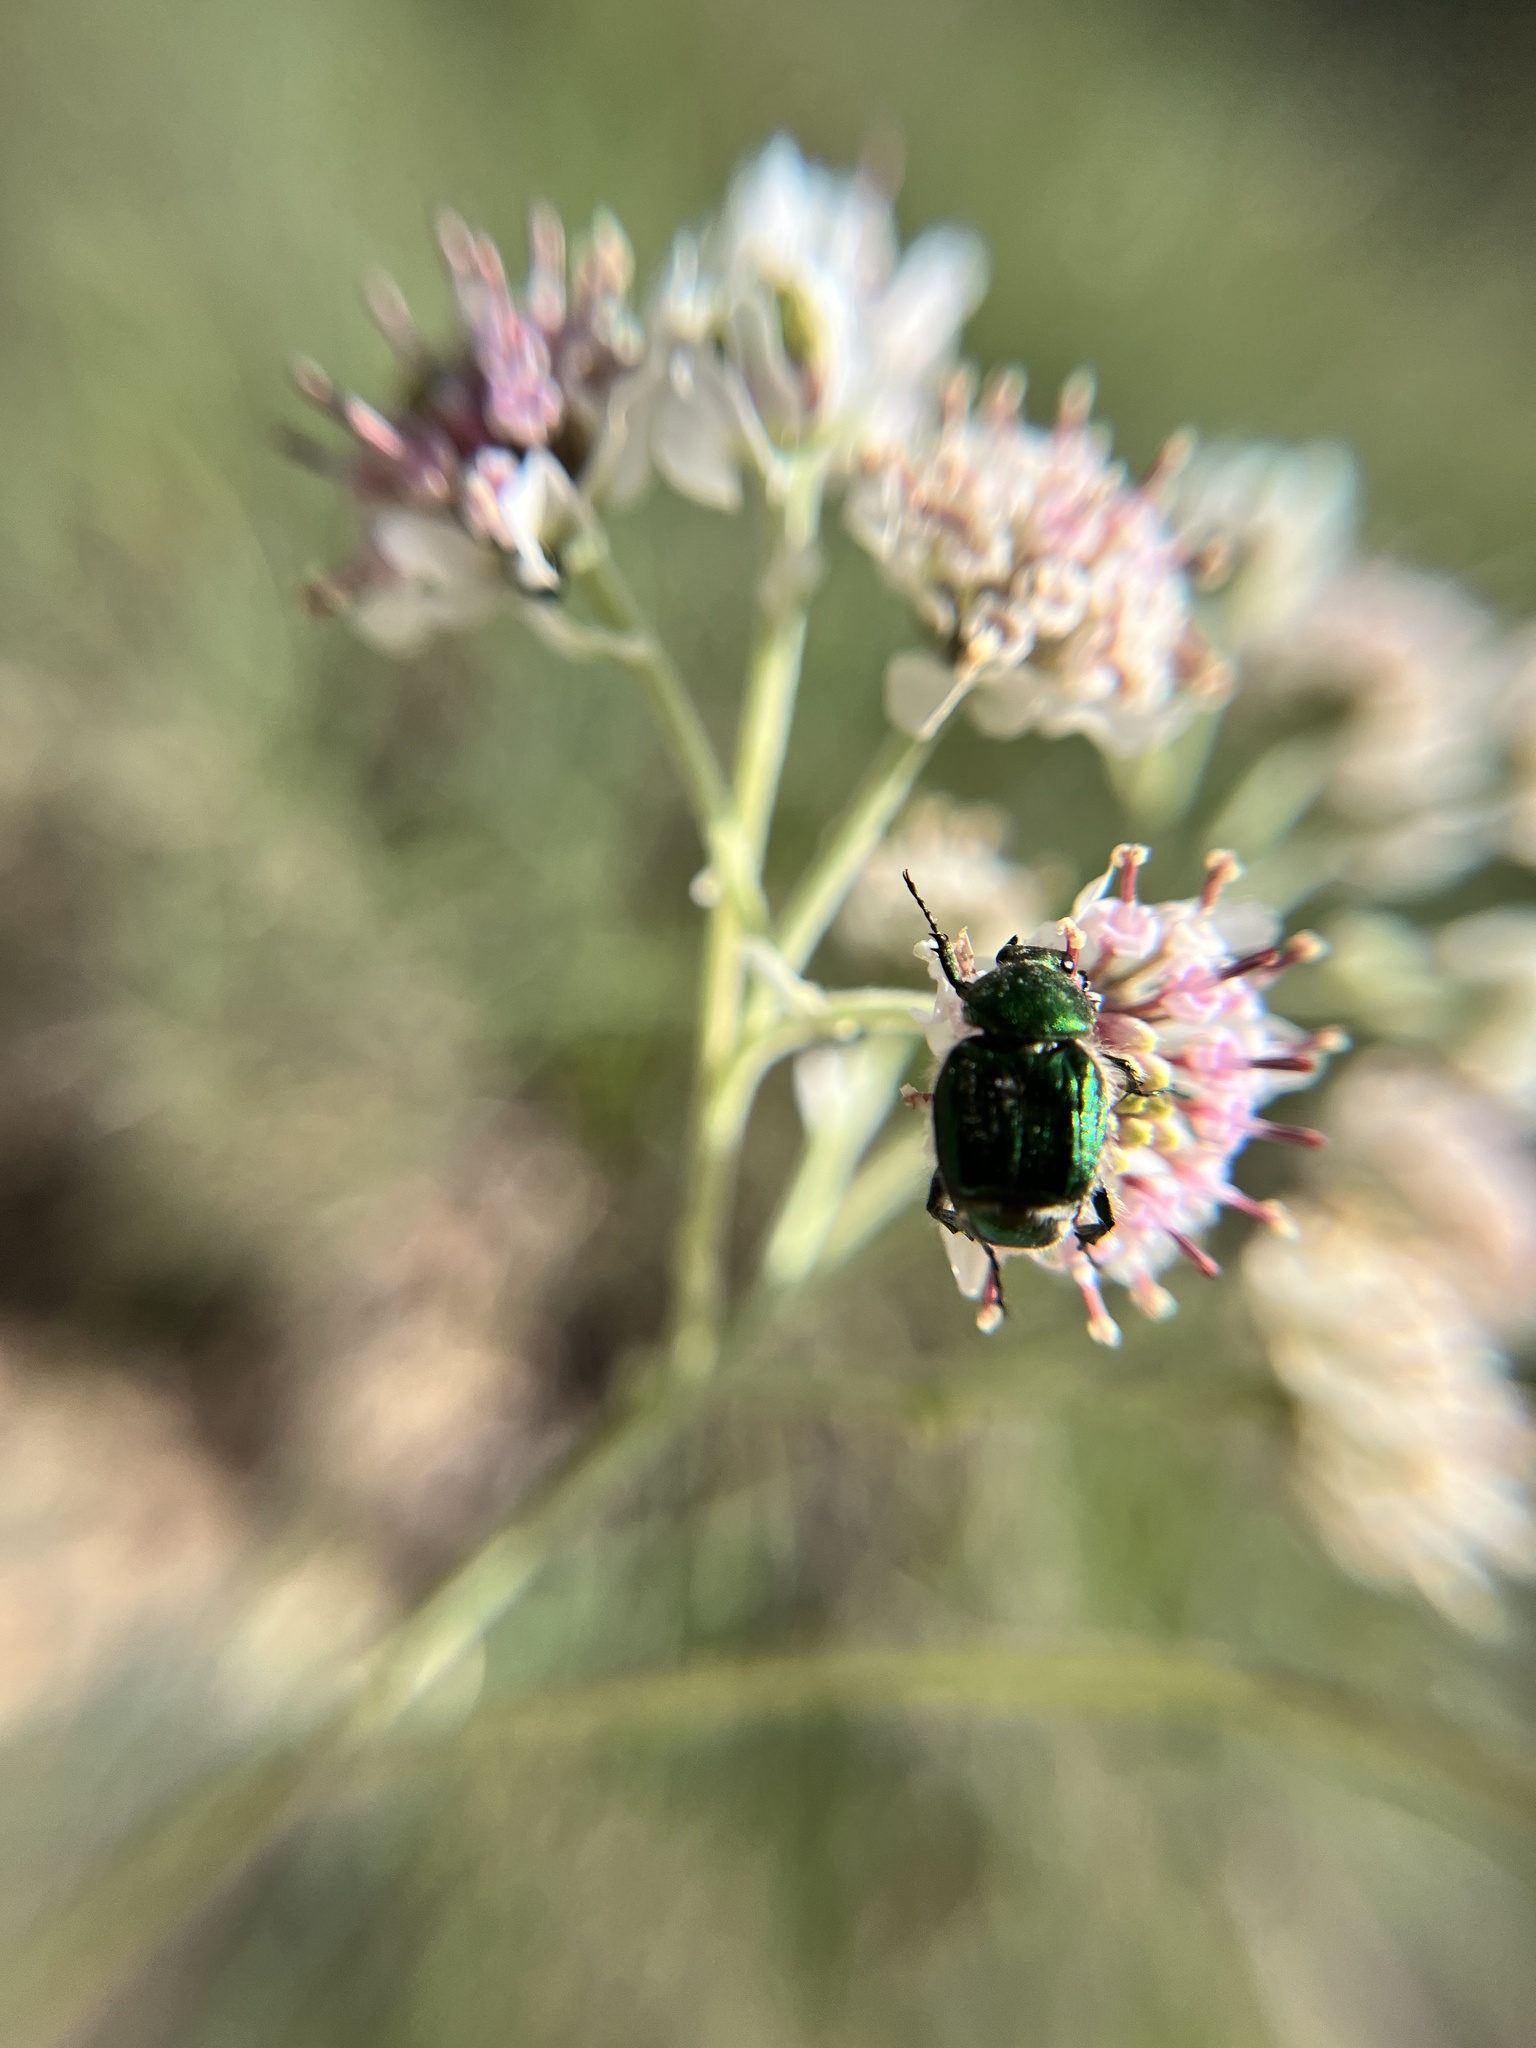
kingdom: Animalia
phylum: Arthropoda
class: Insecta
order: Coleoptera
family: Scarabaeidae
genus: Trichiotinus
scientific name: Trichiotinus lunulatus
